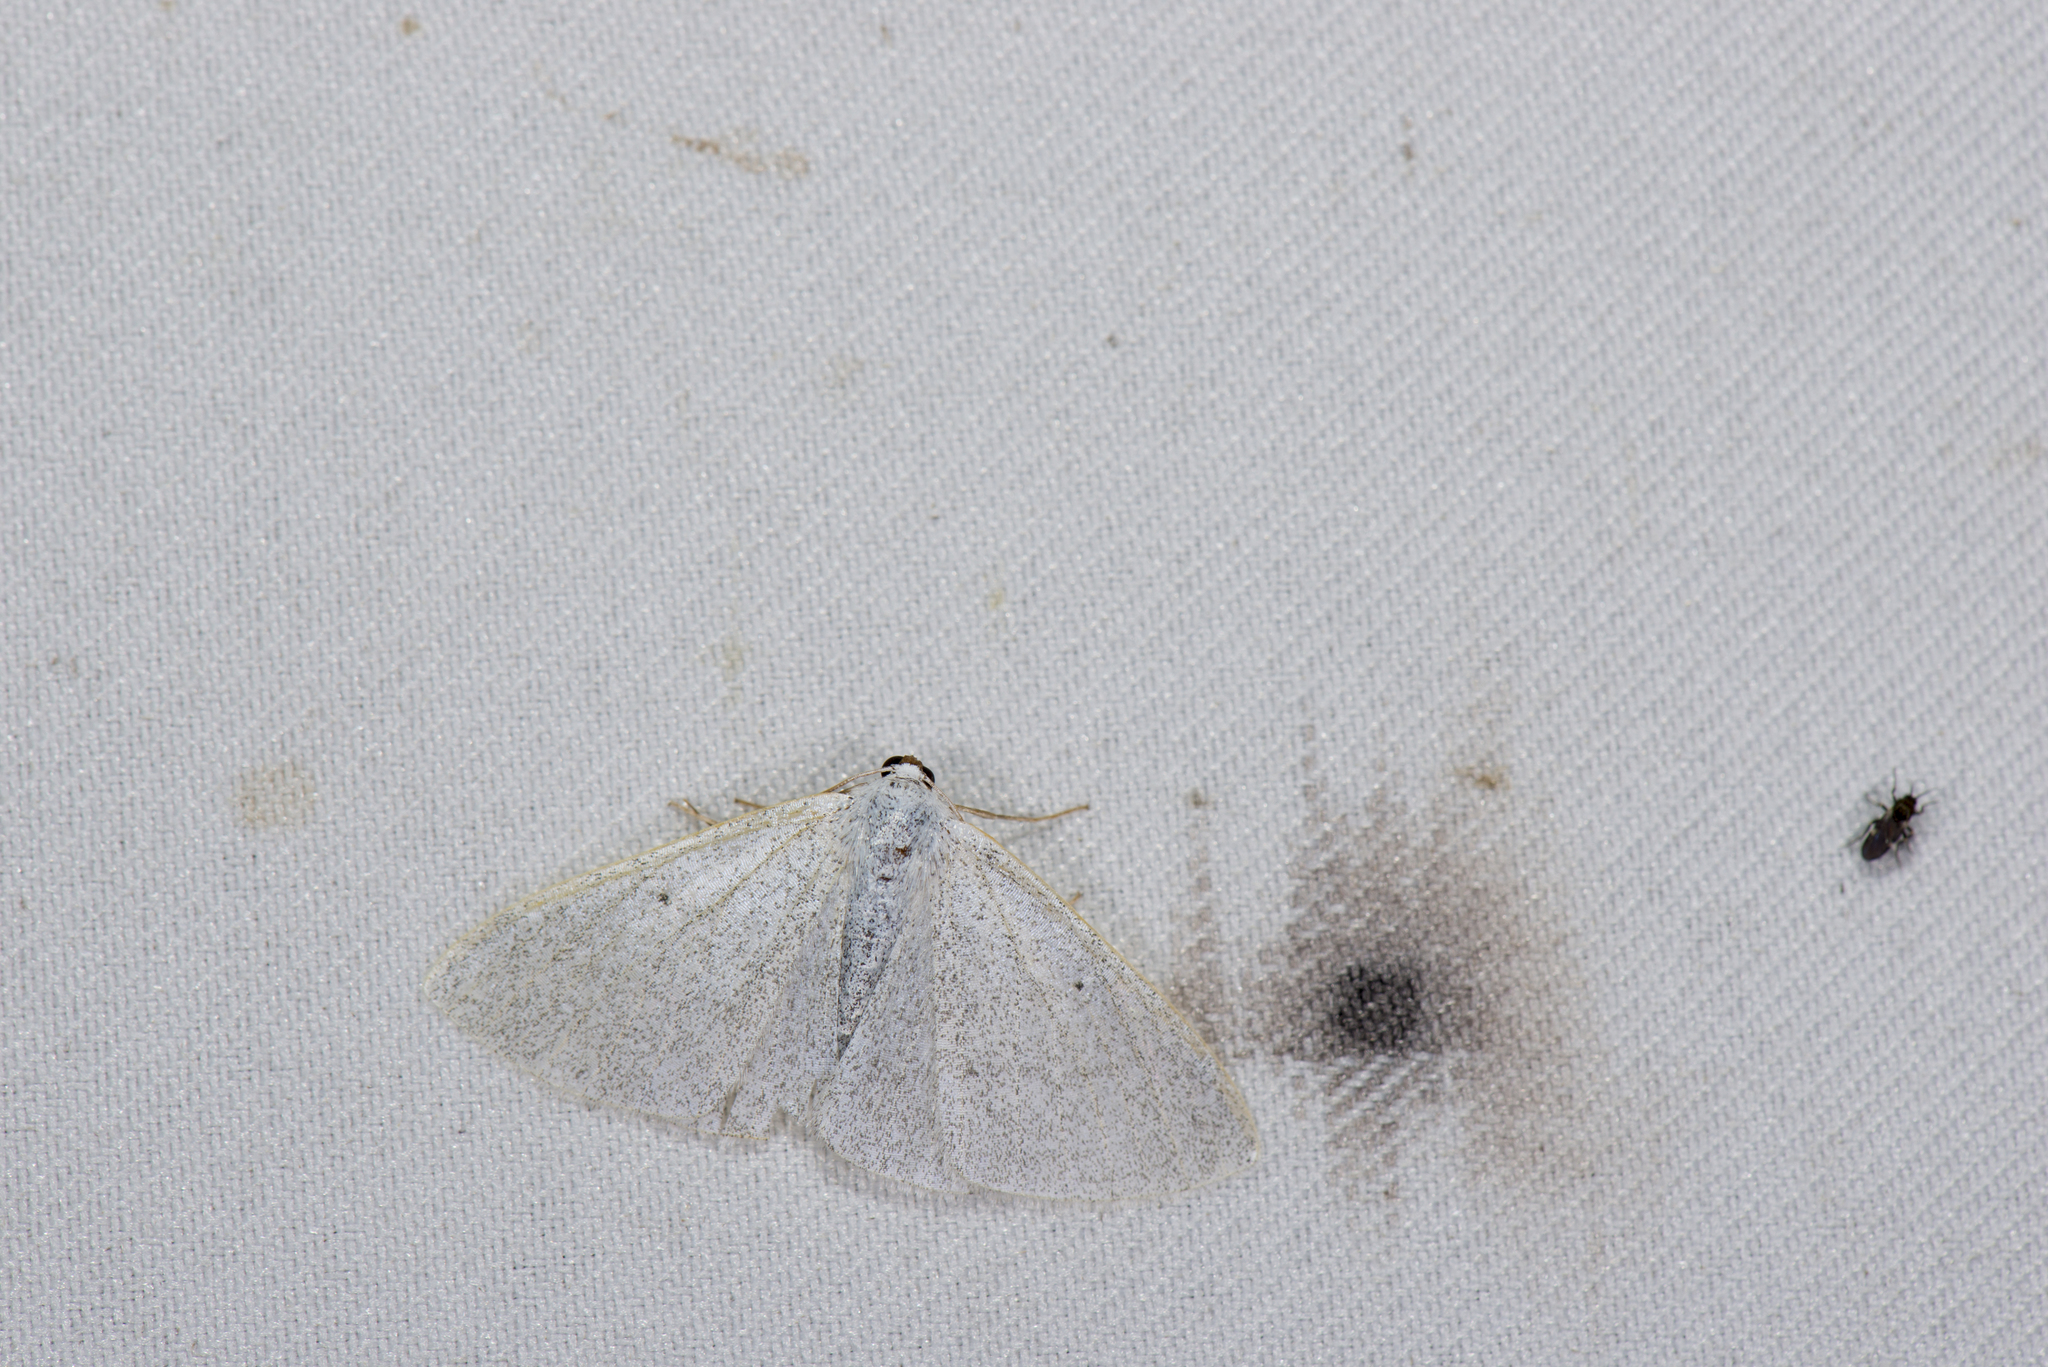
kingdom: Animalia
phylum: Arthropoda
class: Insecta
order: Lepidoptera
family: Geometridae
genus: Lomographa
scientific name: Lomographa margarita
